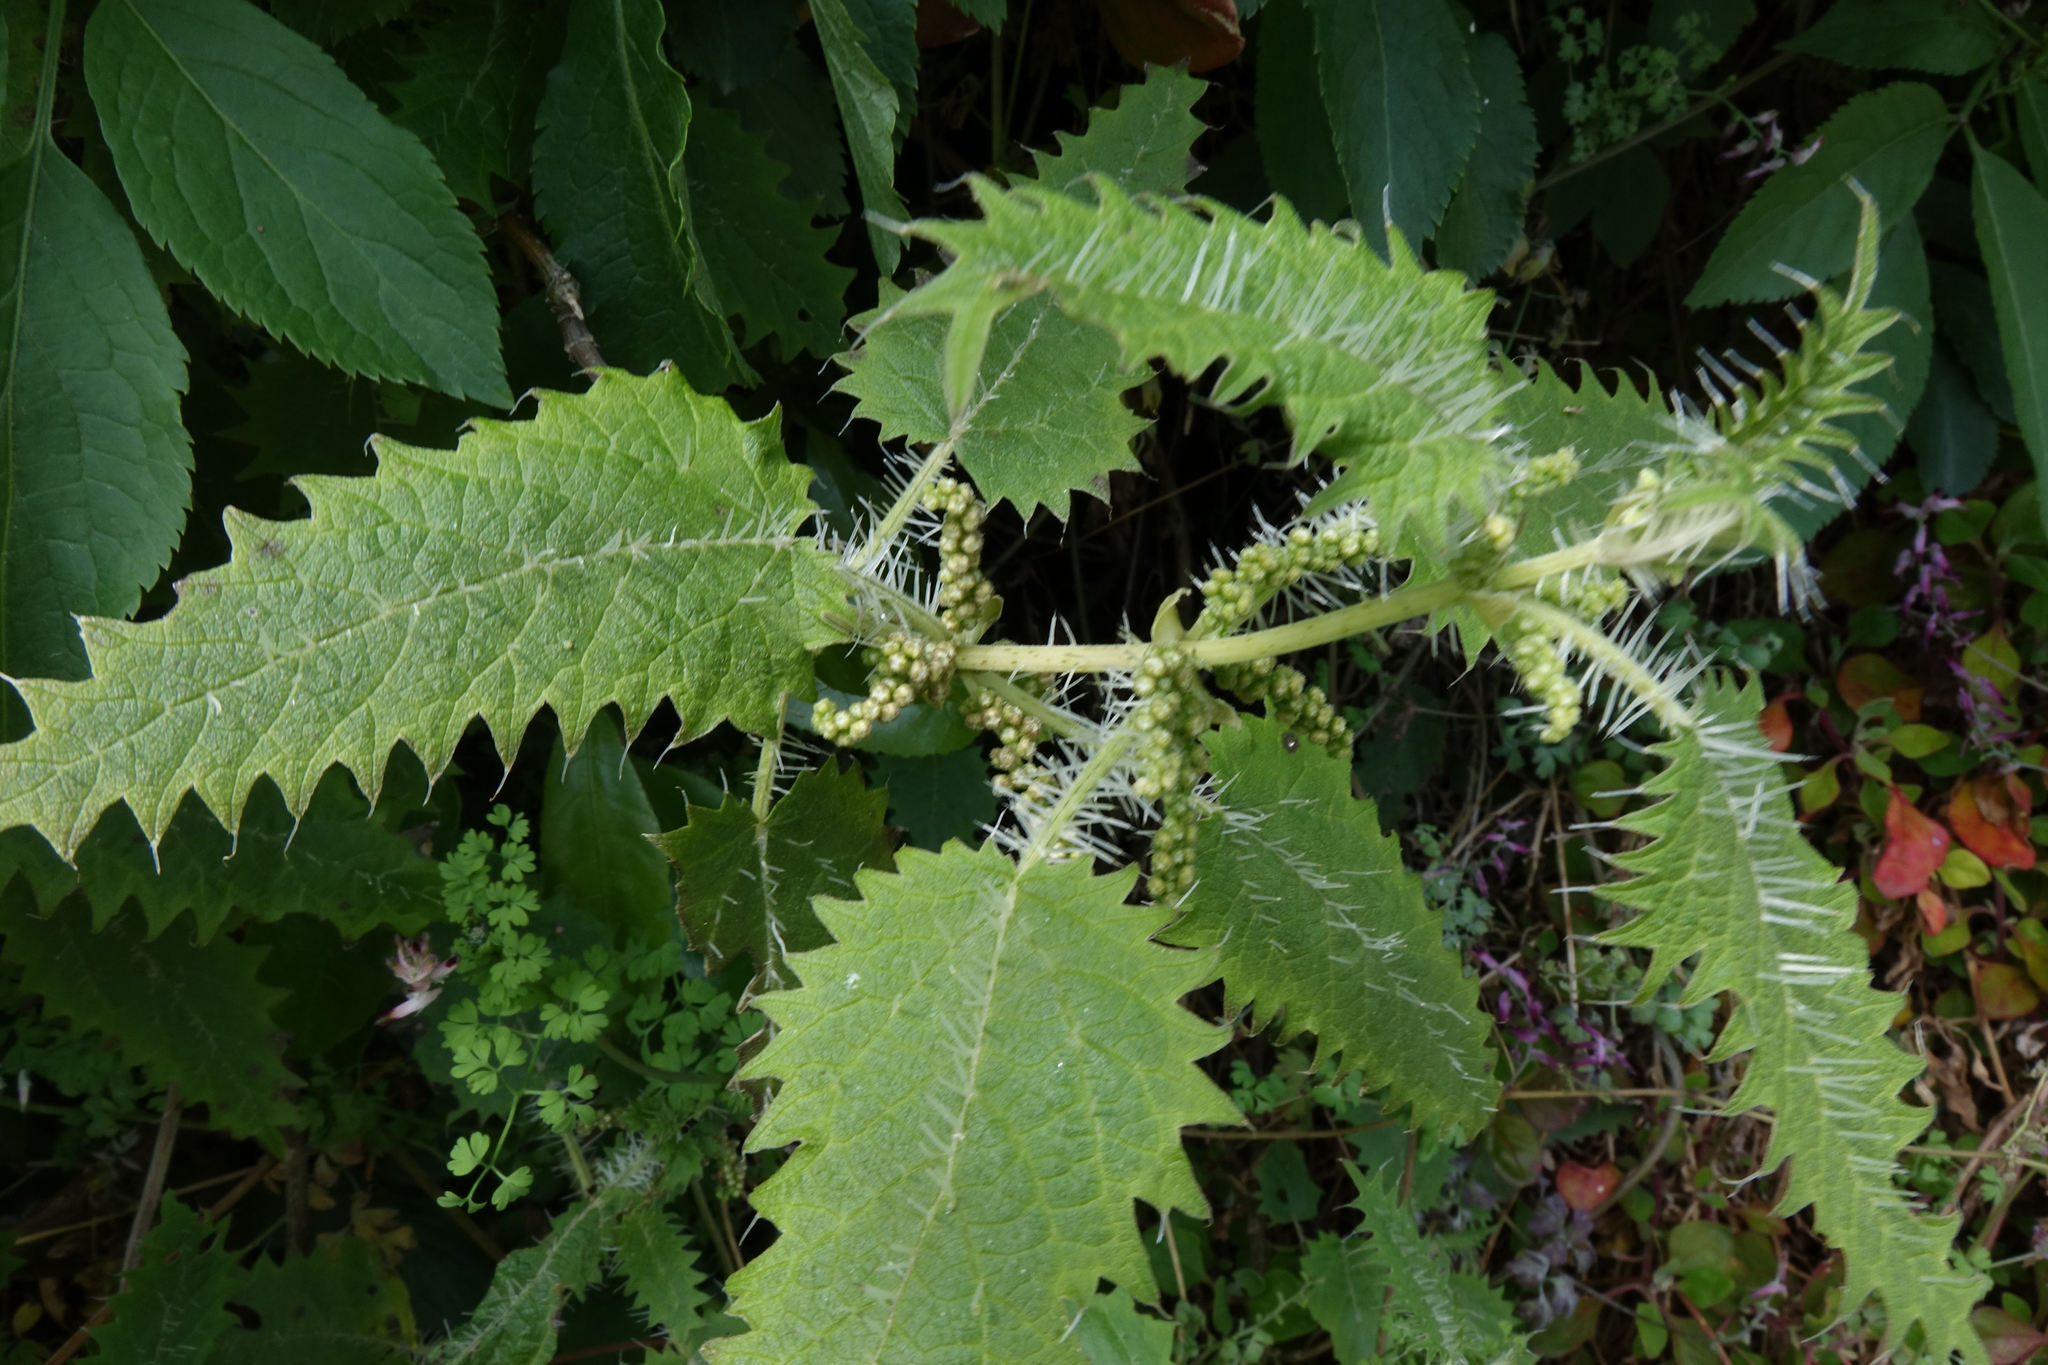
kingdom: Plantae
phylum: Tracheophyta
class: Magnoliopsida
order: Rosales
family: Urticaceae
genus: Urtica
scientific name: Urtica ferox
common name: Tree nettle
